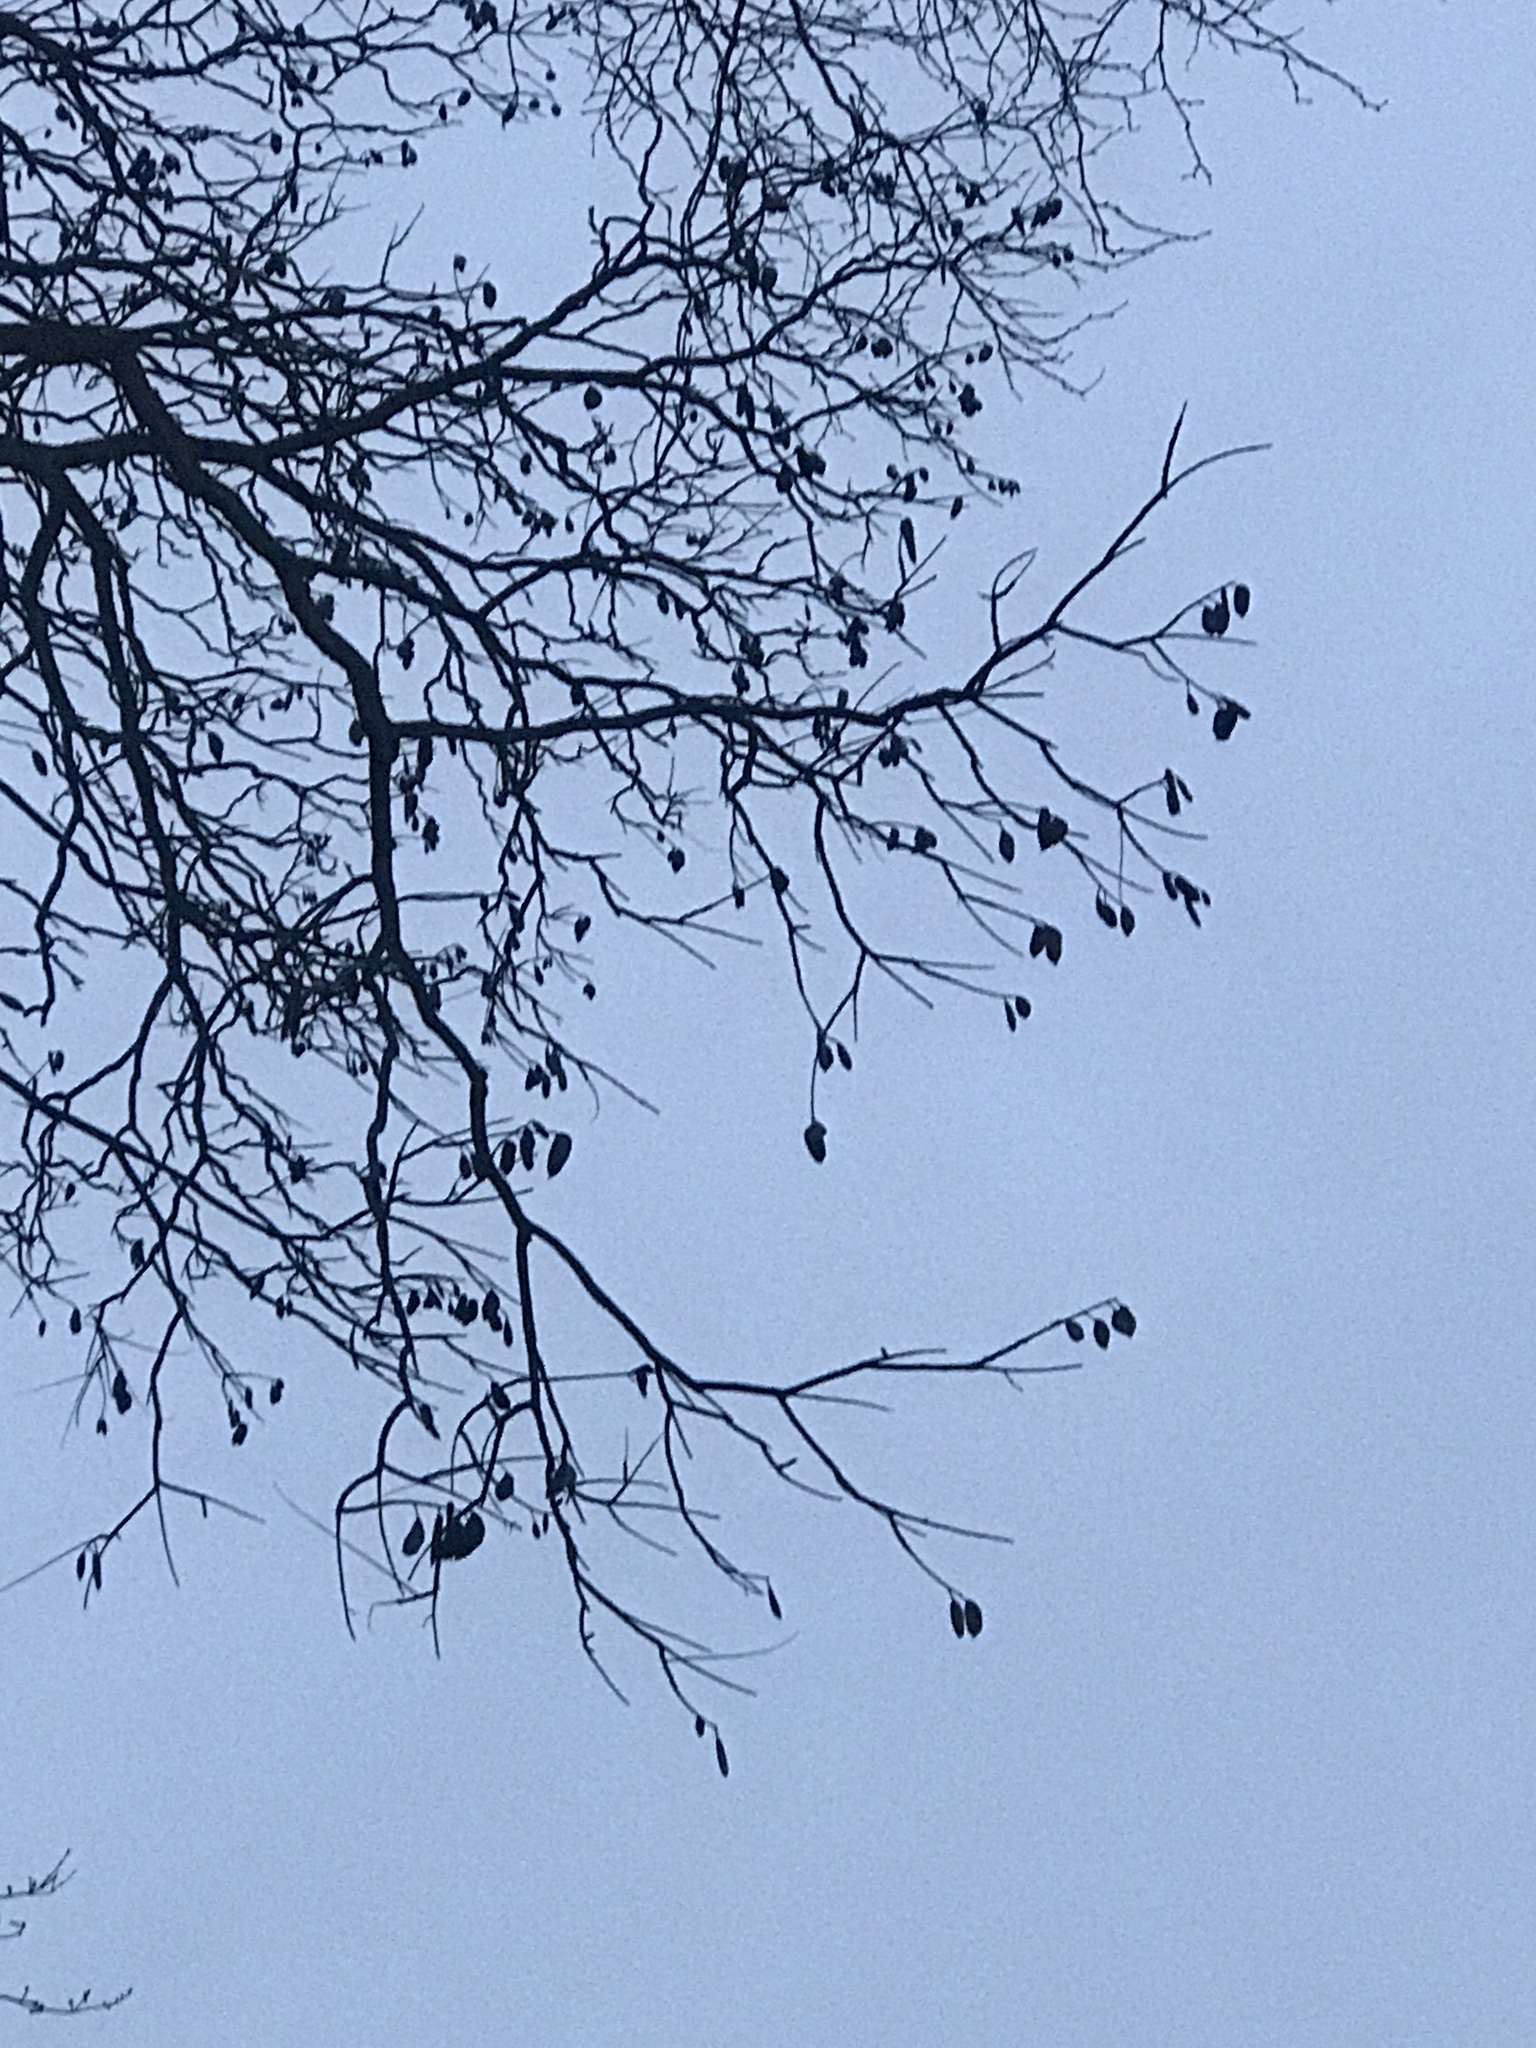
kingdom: Plantae
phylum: Tracheophyta
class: Magnoliopsida
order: Fabales
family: Fabaceae
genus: Gymnocladus
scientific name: Gymnocladus dioicus
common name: Kentucky coffee-tree
